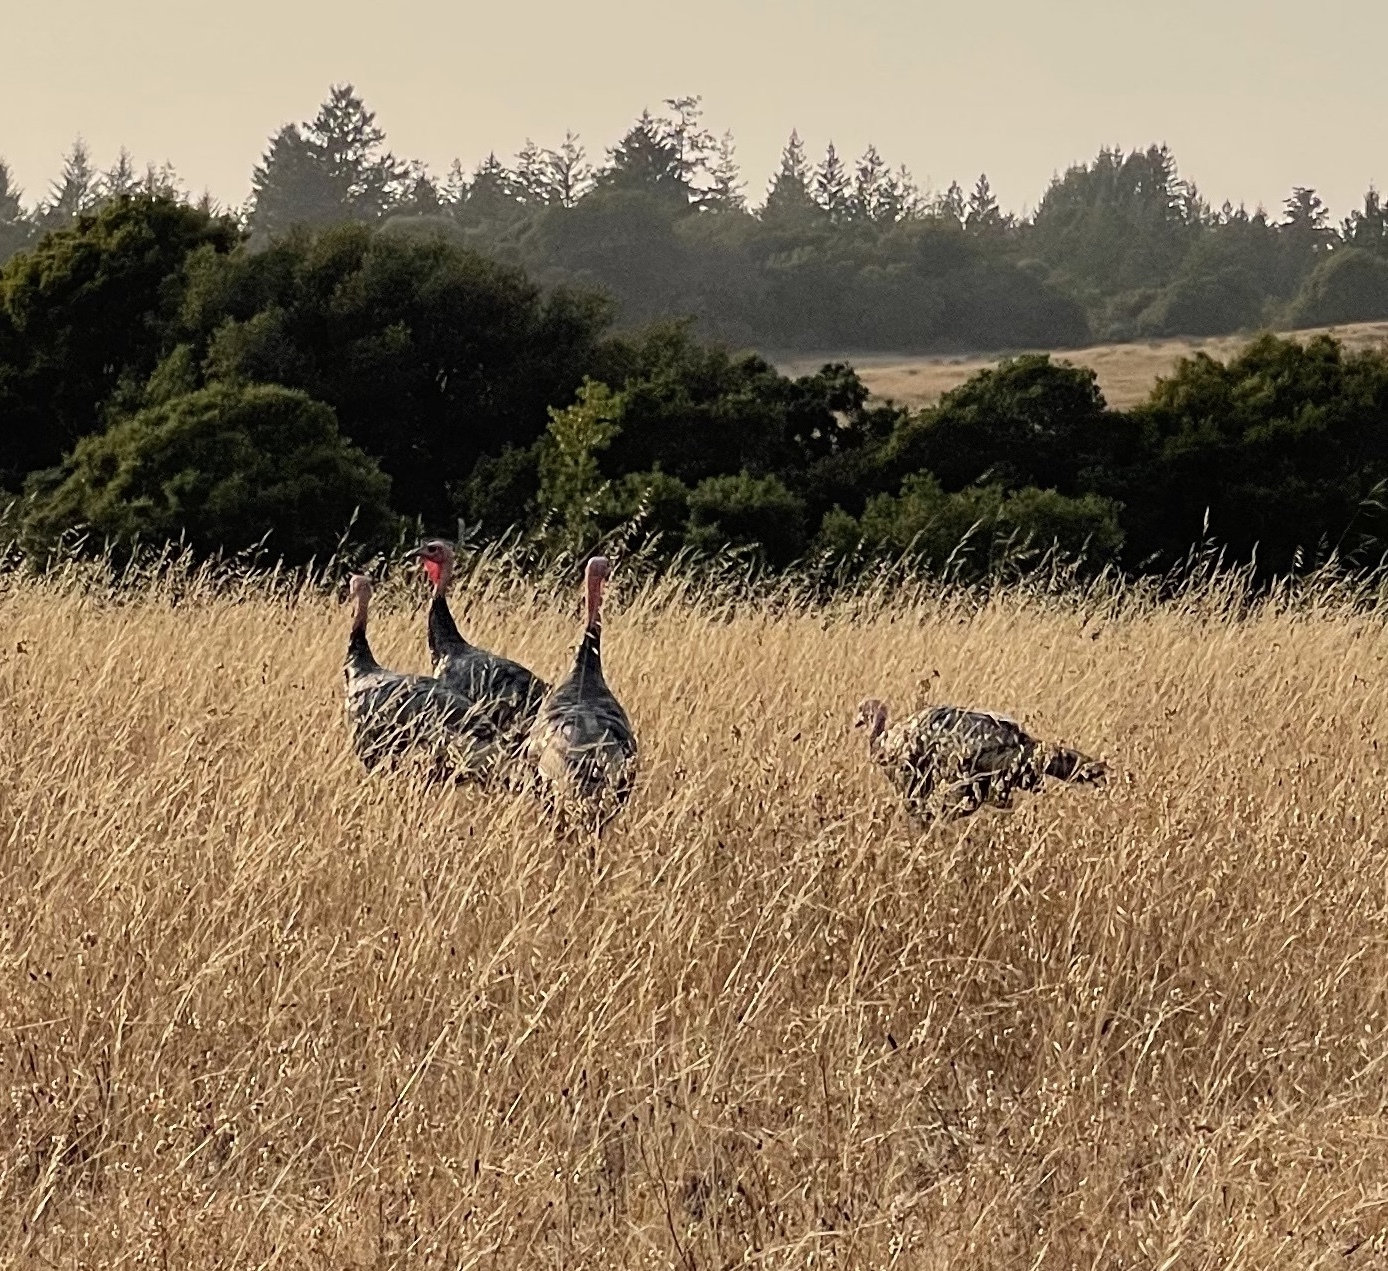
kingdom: Animalia
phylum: Chordata
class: Aves
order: Galliformes
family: Phasianidae
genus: Meleagris
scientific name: Meleagris gallopavo
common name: Wild turkey
